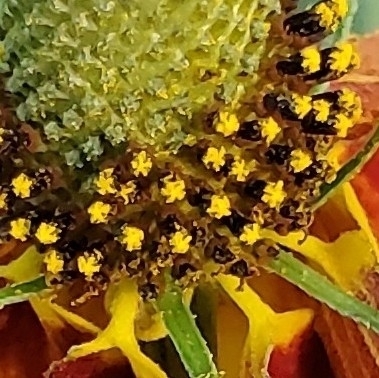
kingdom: Plantae
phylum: Tracheophyta
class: Magnoliopsida
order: Asterales
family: Asteraceae
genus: Ratibida
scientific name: Ratibida columnifera
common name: Prairie coneflower
